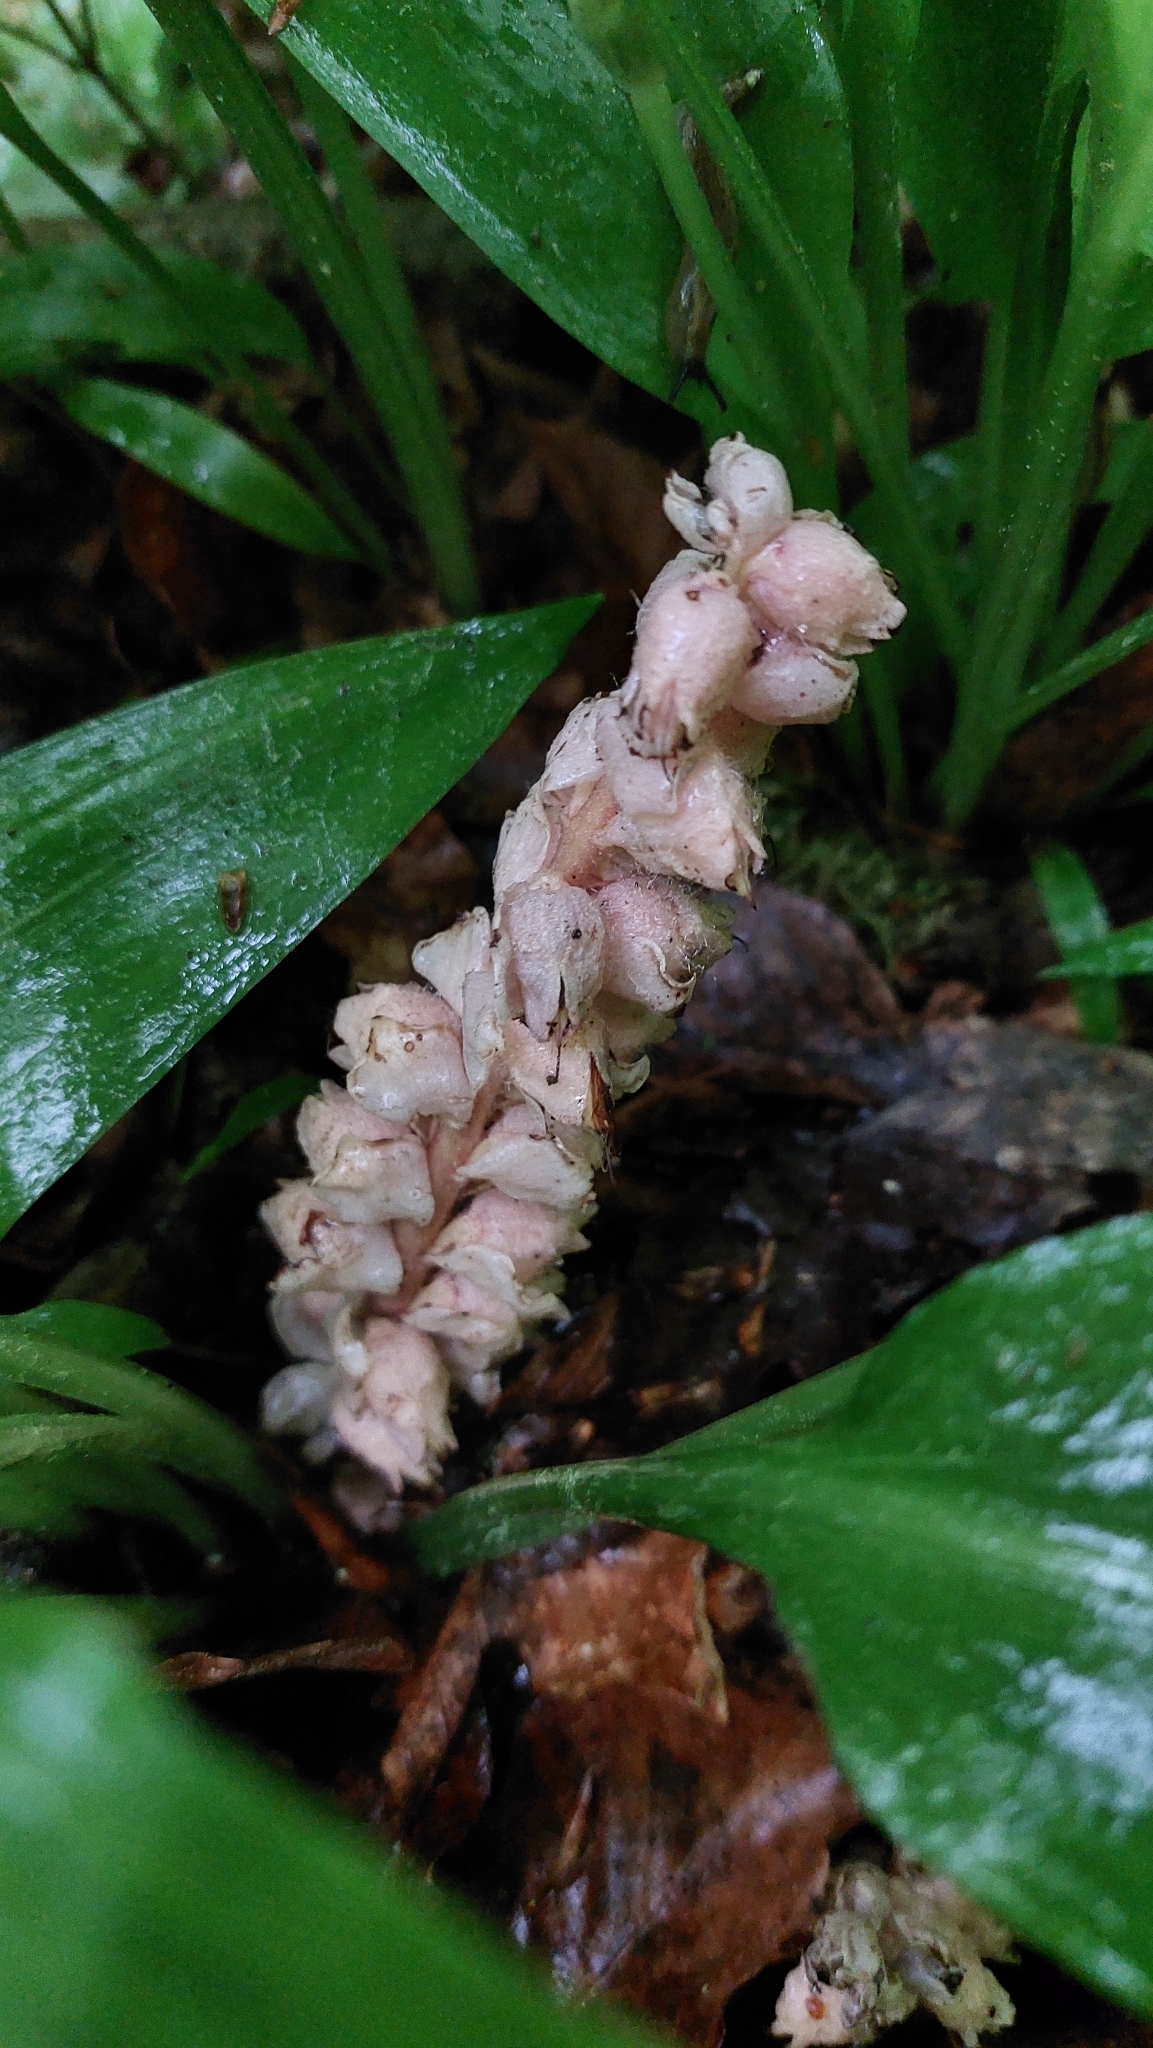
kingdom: Plantae
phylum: Tracheophyta
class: Magnoliopsida
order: Lamiales
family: Orobanchaceae
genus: Lathraea
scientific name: Lathraea squamaria
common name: Toothwort
